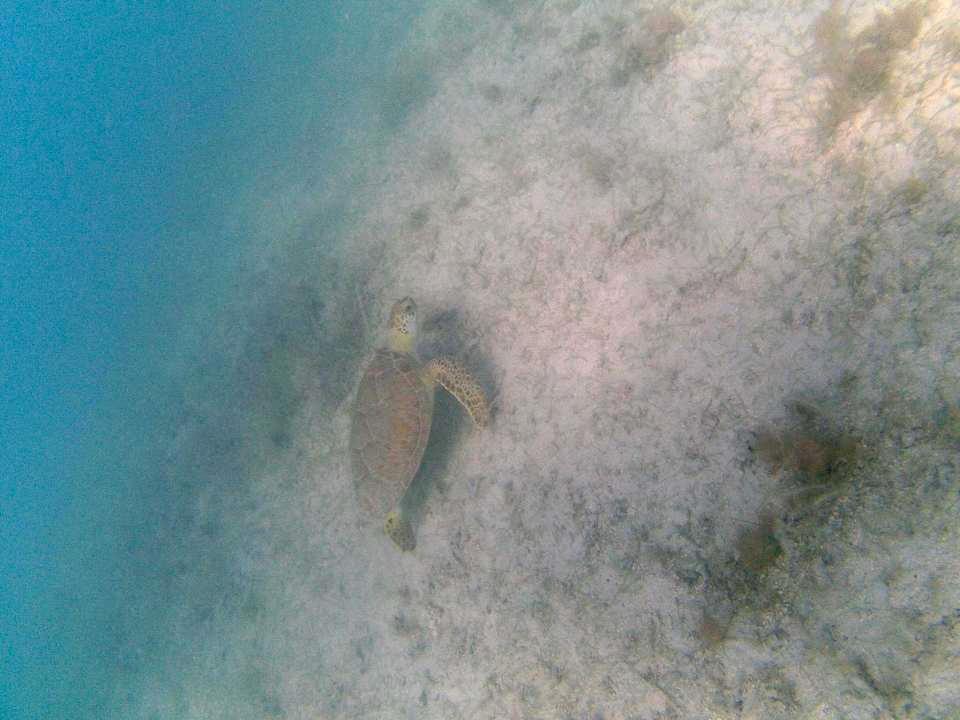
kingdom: Animalia
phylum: Chordata
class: Testudines
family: Cheloniidae
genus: Chelonia
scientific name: Chelonia mydas
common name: Green turtle
